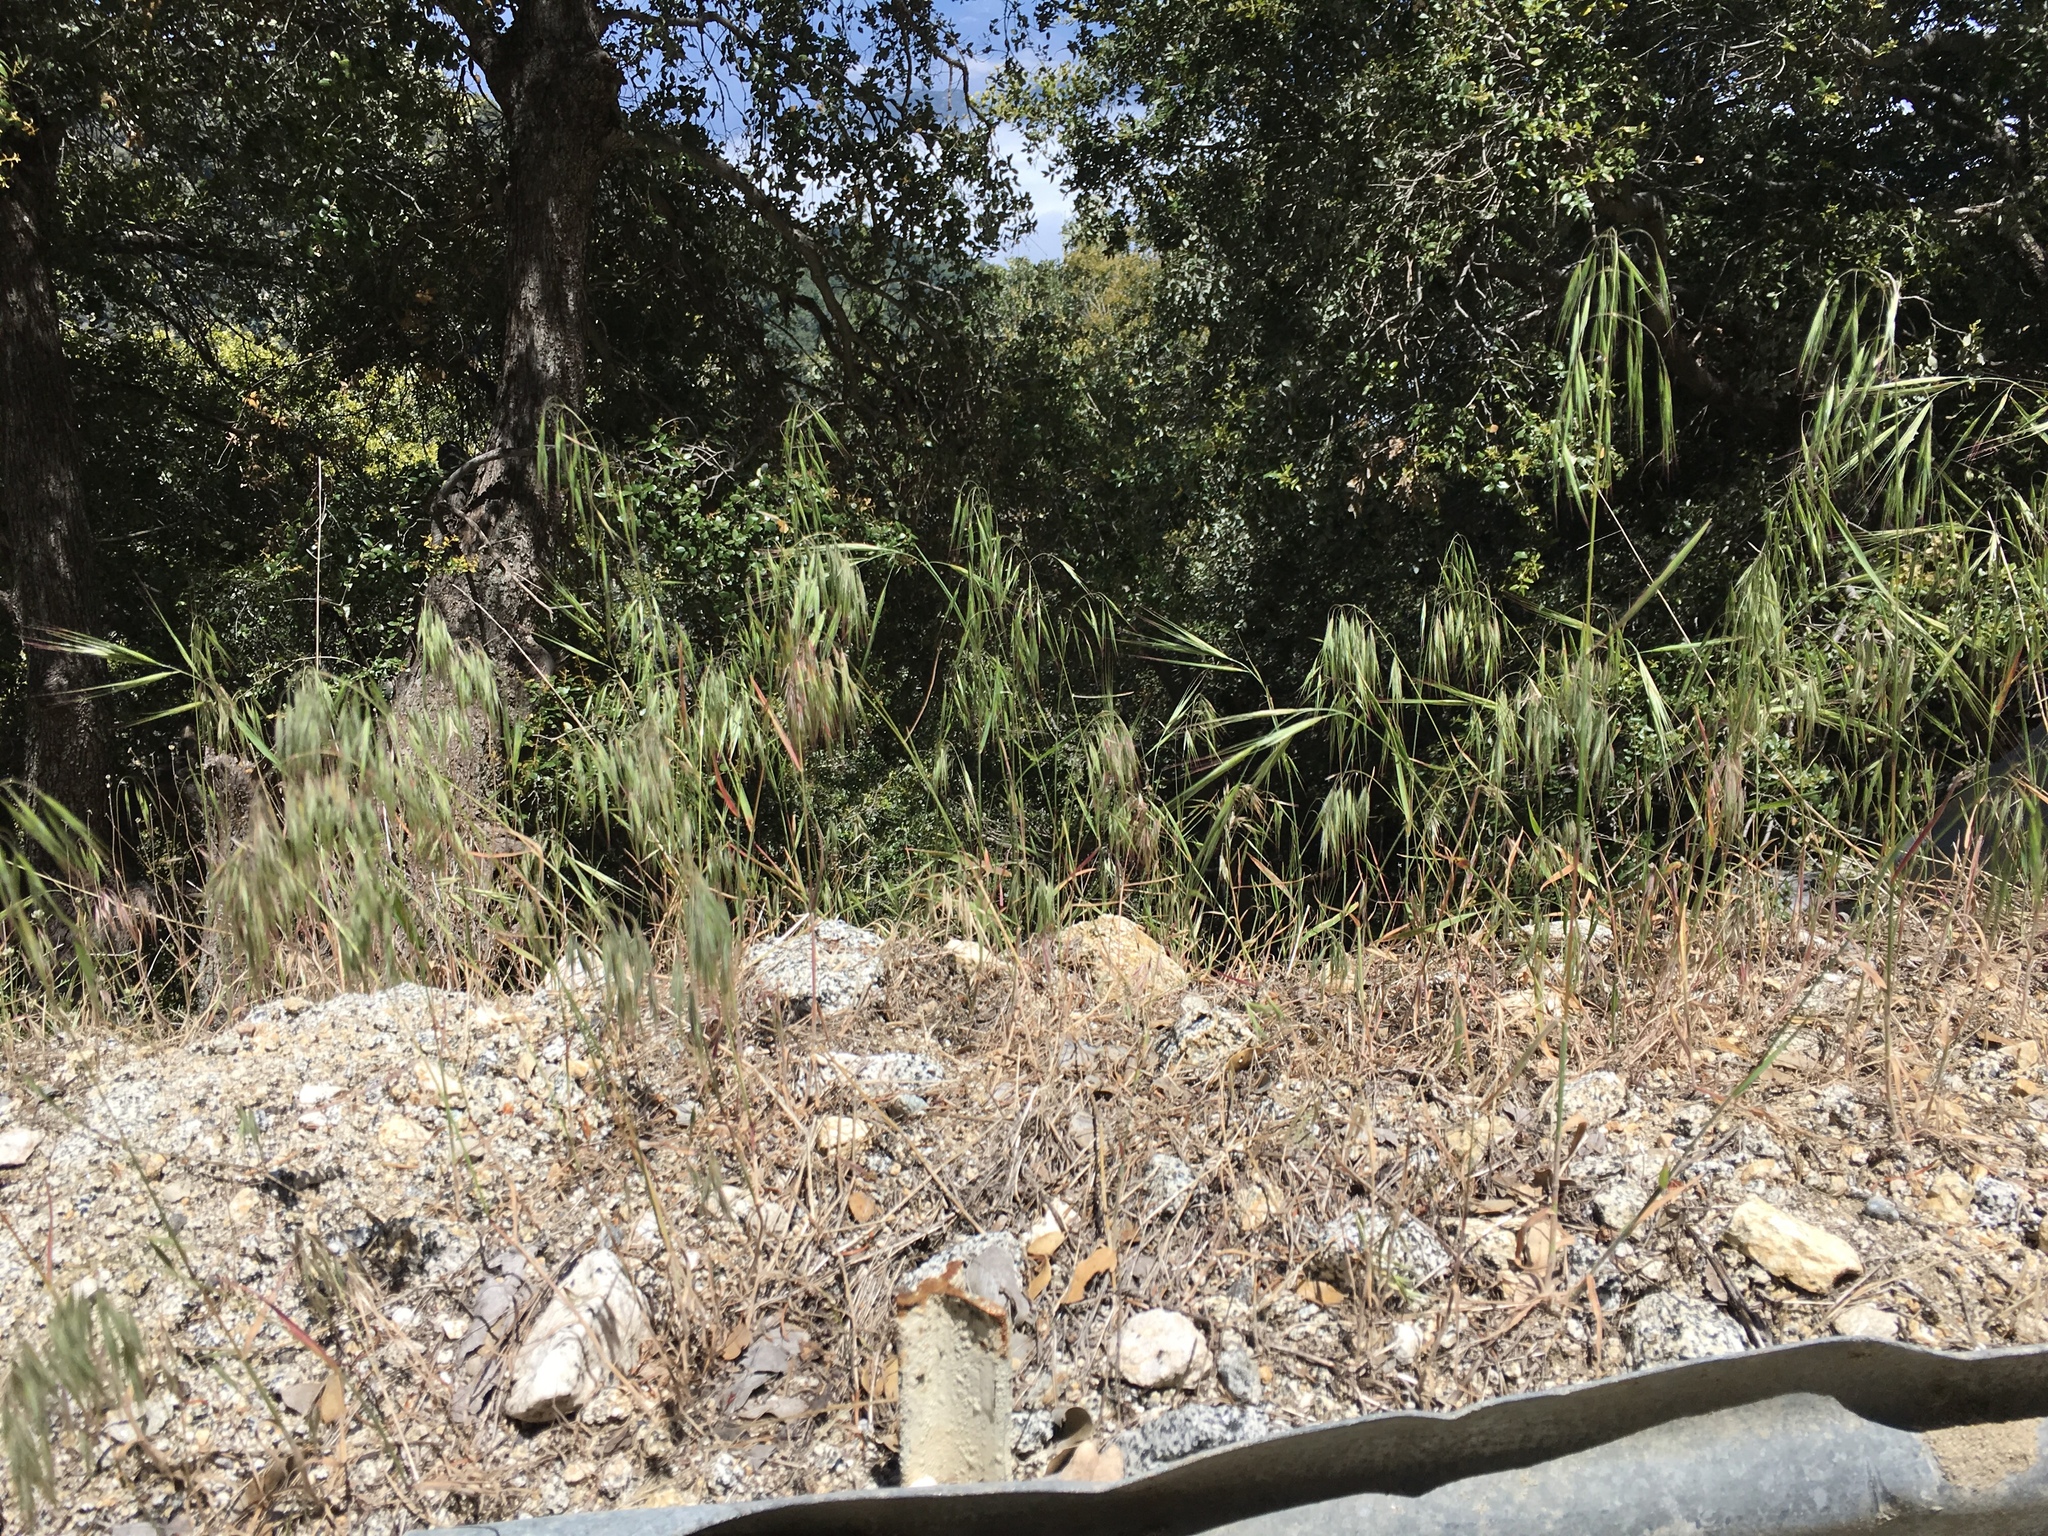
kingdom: Plantae
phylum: Tracheophyta
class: Liliopsida
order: Poales
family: Poaceae
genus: Bromus
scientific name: Bromus tectorum
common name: Cheatgrass
